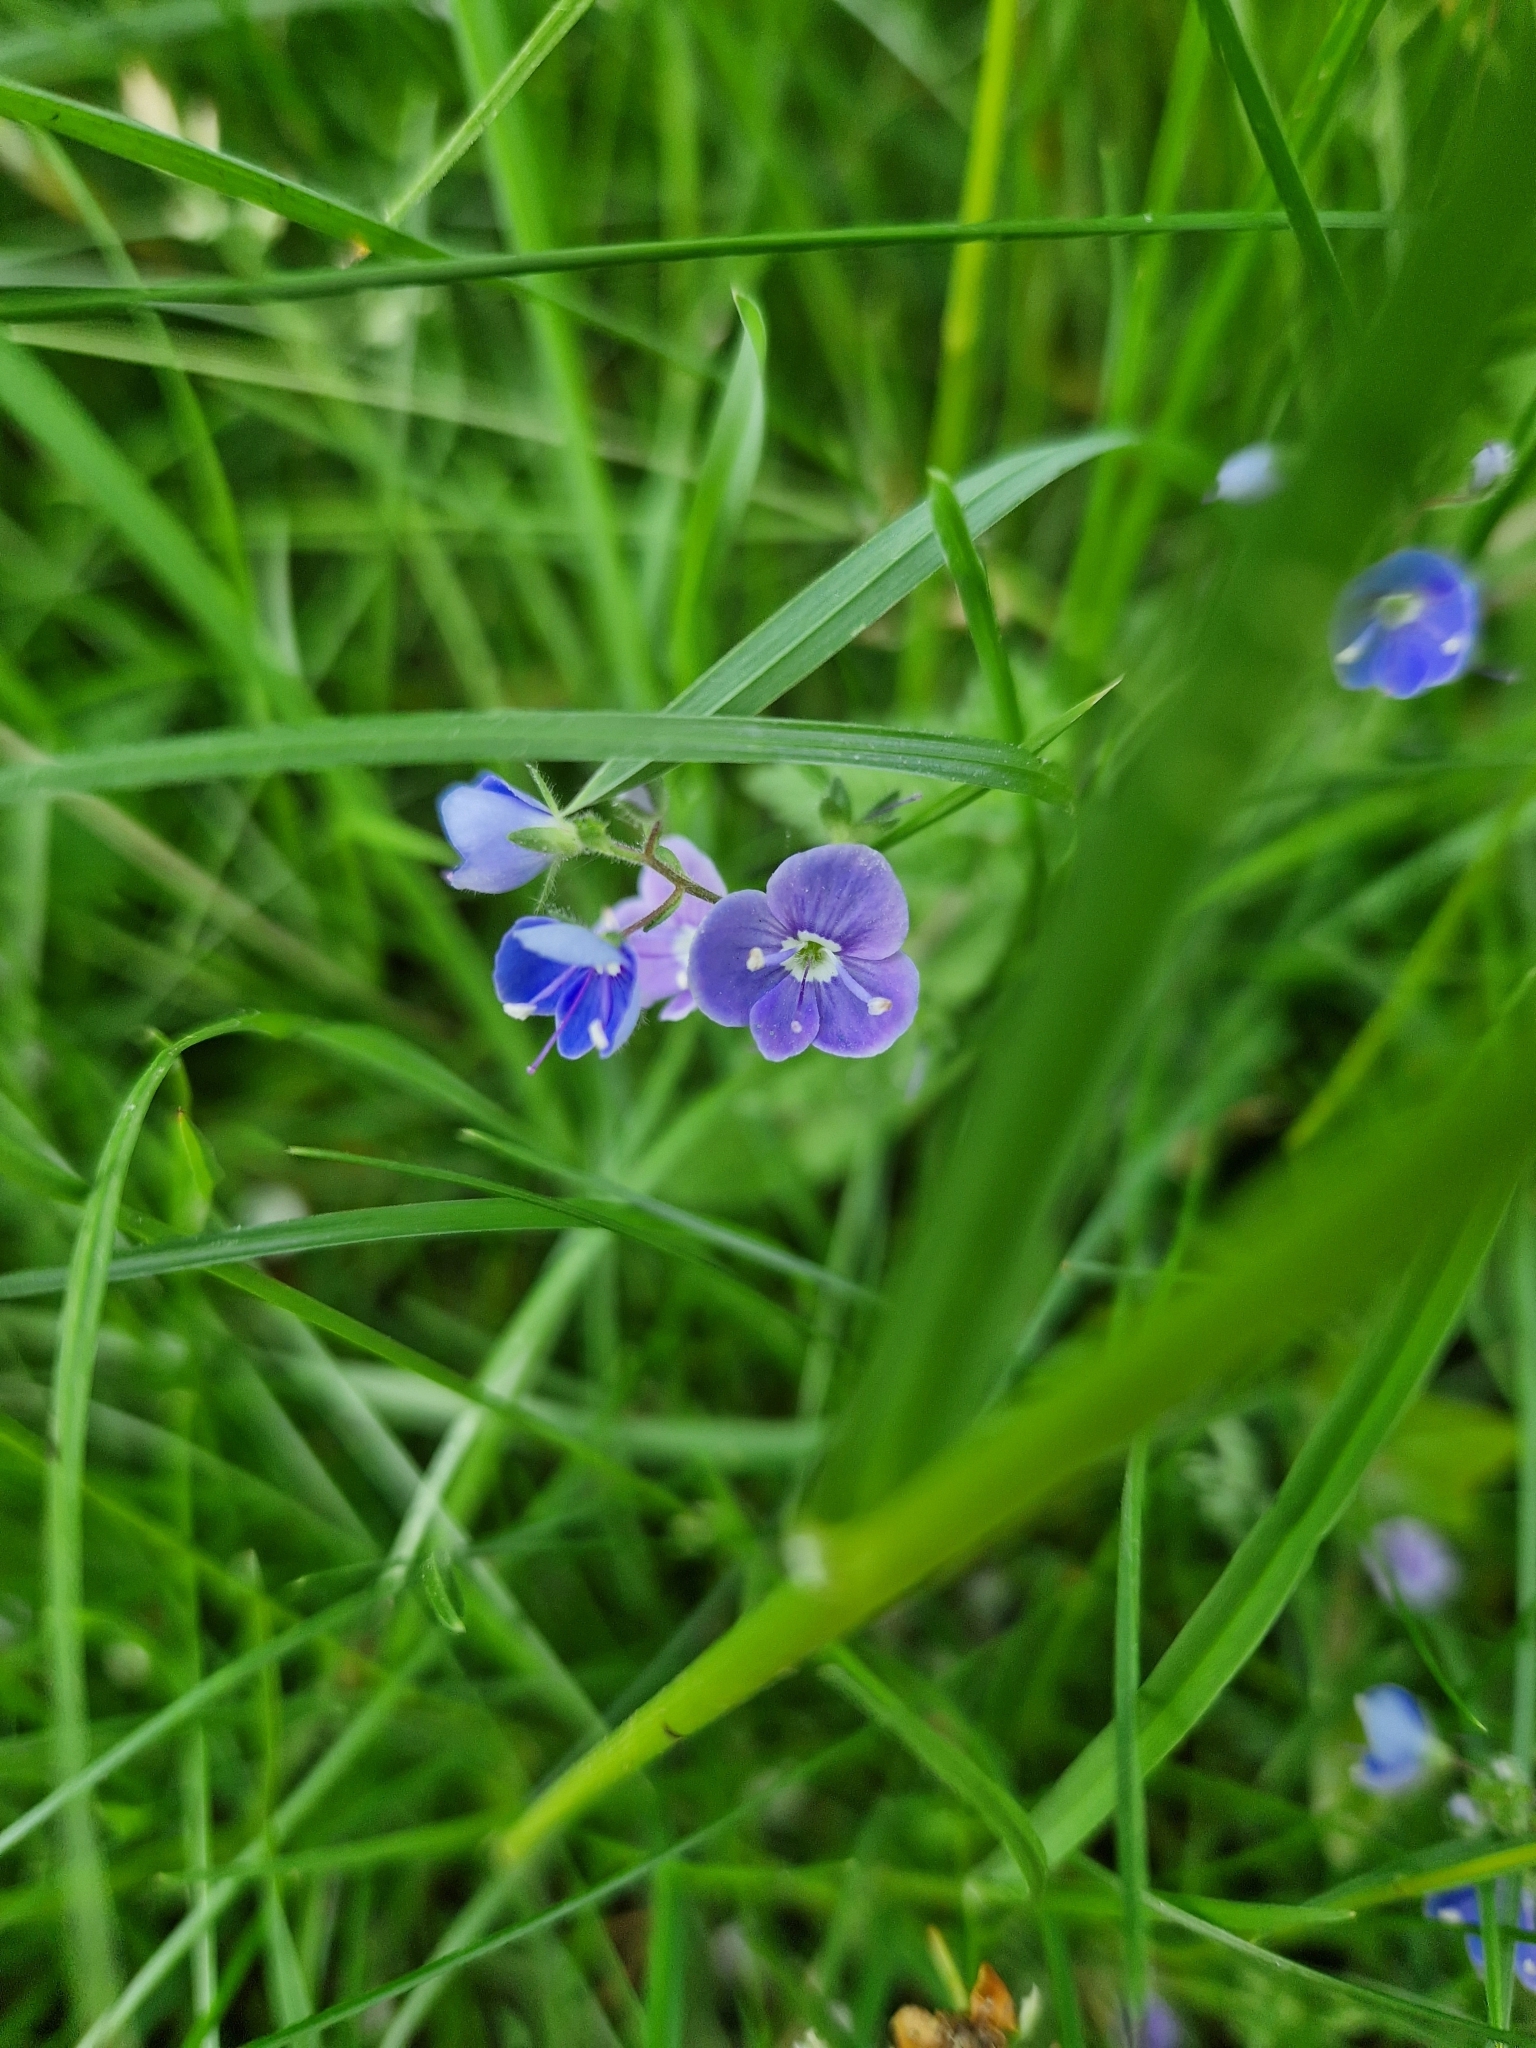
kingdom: Plantae
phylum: Tracheophyta
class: Magnoliopsida
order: Lamiales
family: Plantaginaceae
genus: Veronica
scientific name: Veronica chamaedrys
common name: Germander speedwell
